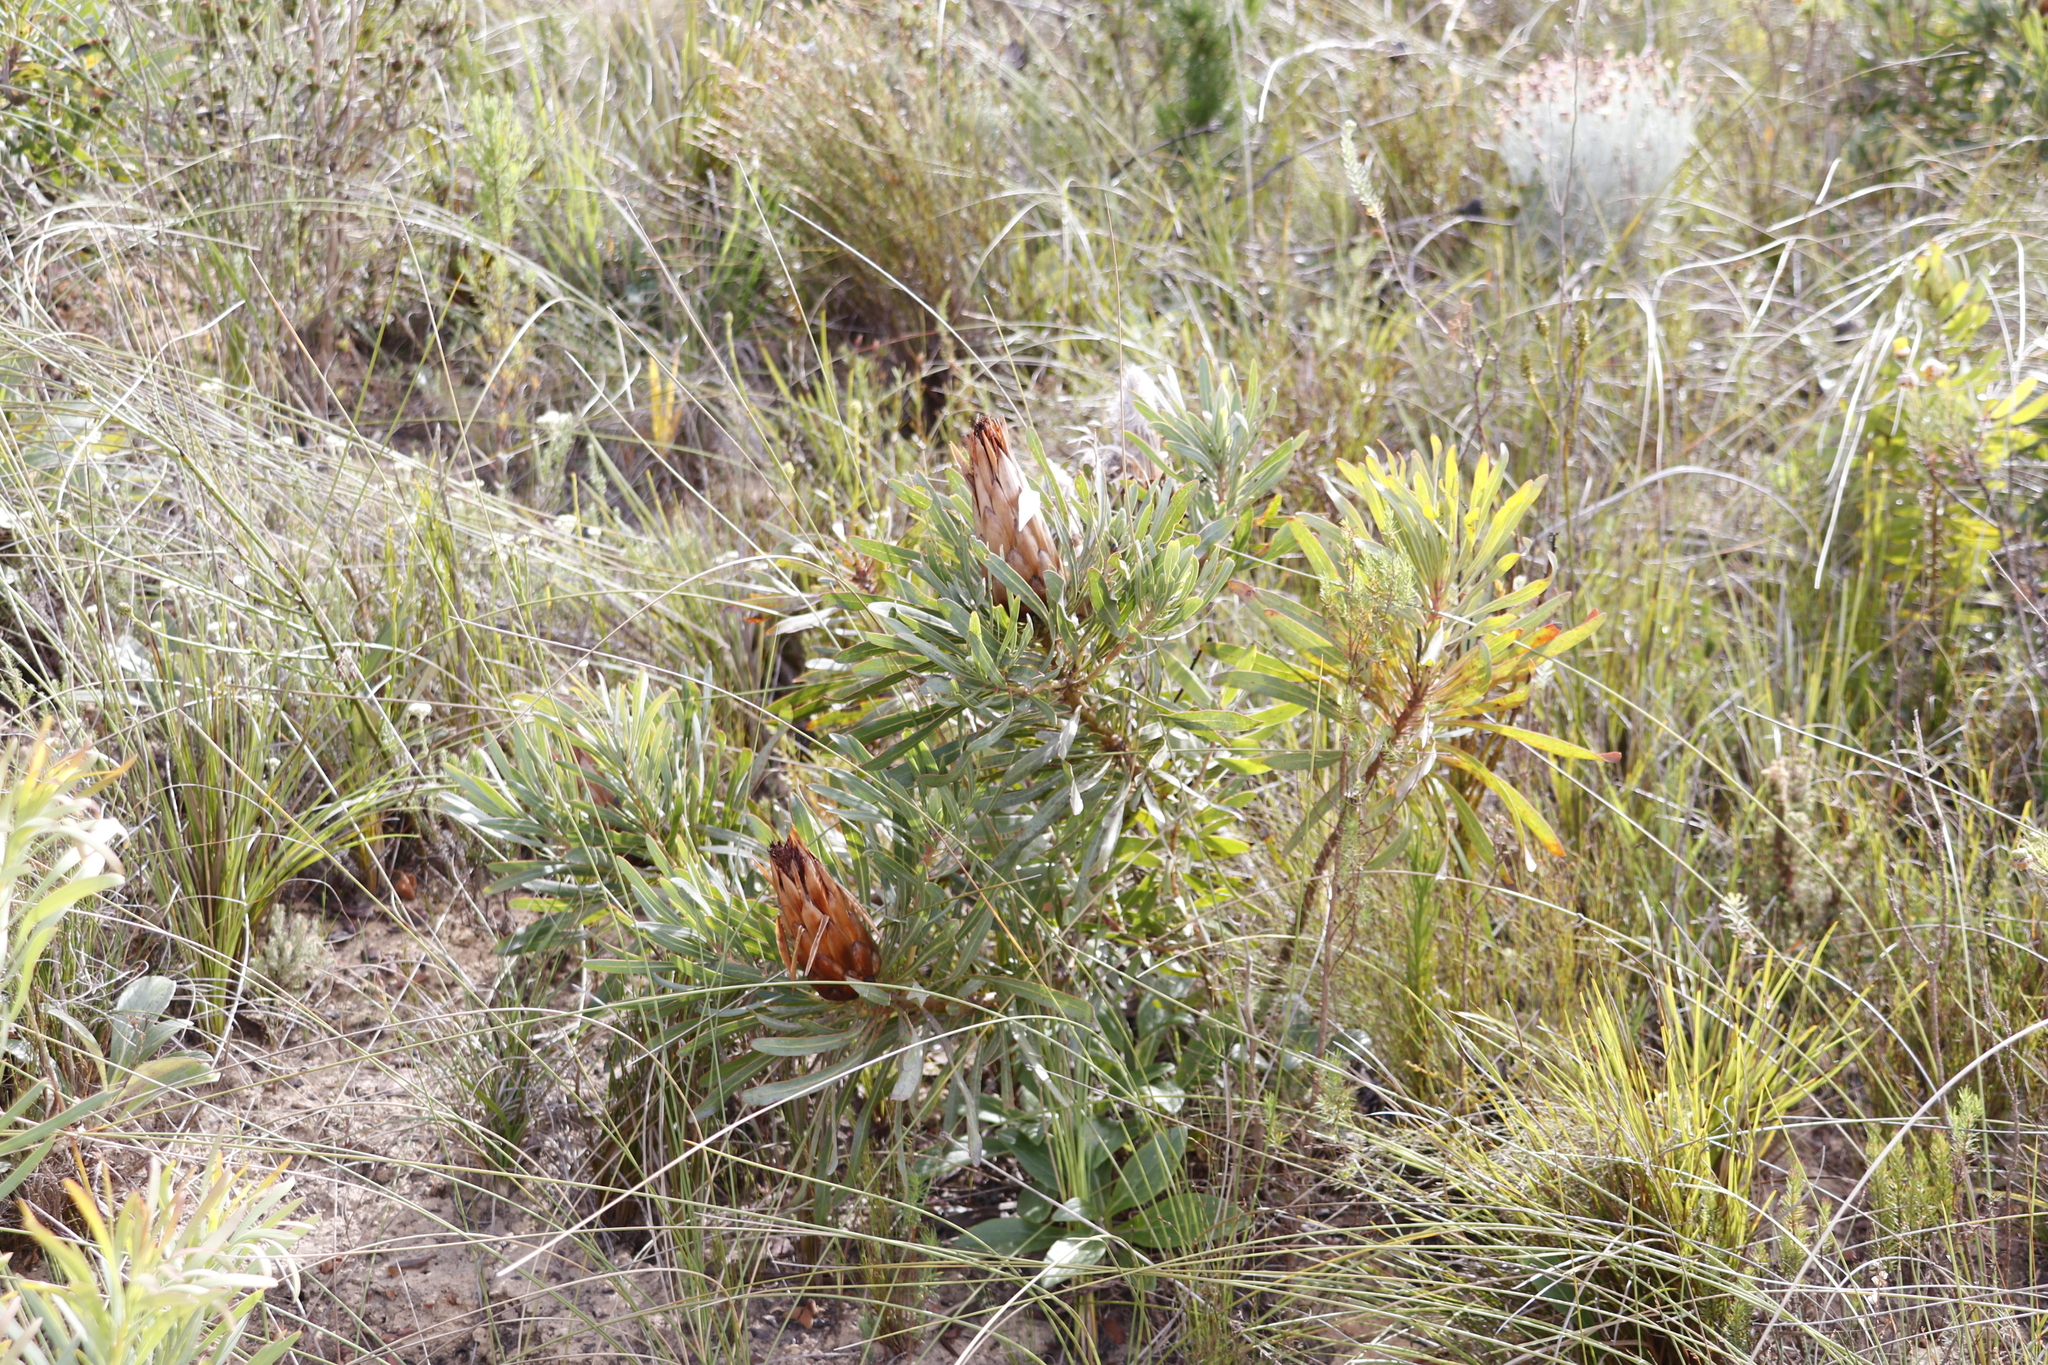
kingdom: Plantae
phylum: Tracheophyta
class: Magnoliopsida
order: Proteales
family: Proteaceae
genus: Protea
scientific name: Protea longifolia
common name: Long-leaf sugarbush
